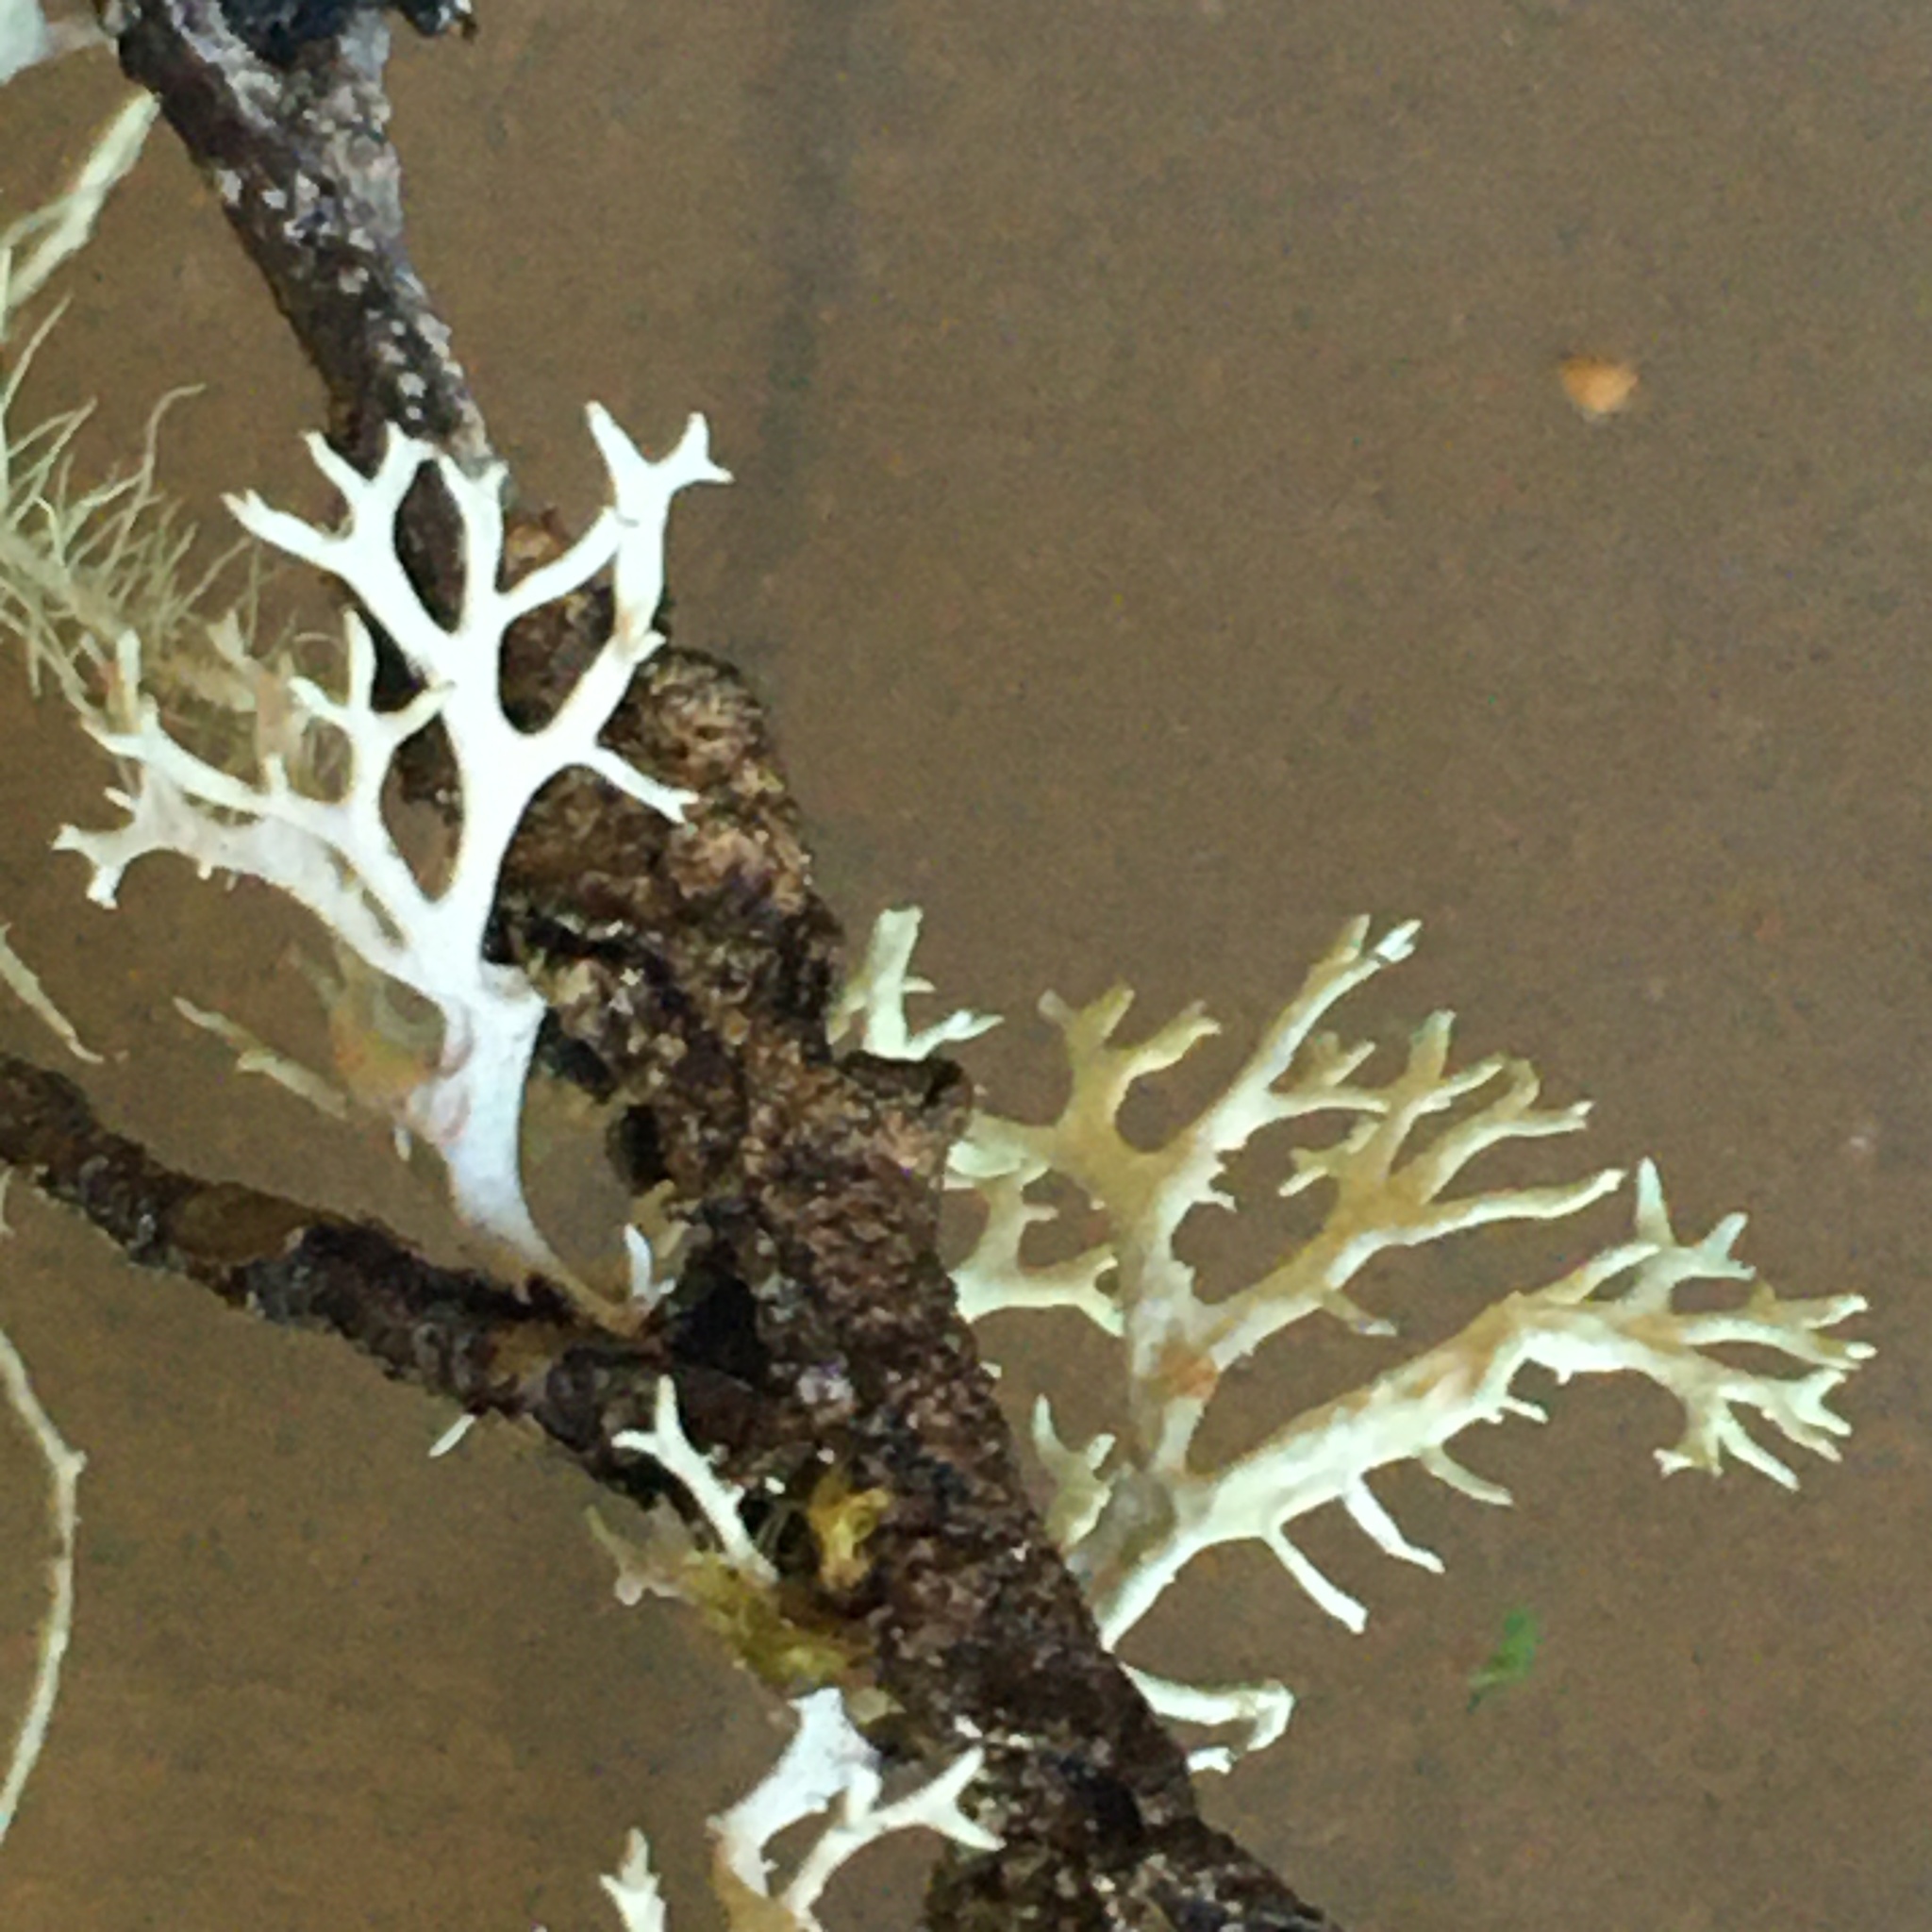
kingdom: Fungi
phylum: Ascomycota
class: Lecanoromycetes
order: Lecanorales
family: Parmeliaceae
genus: Evernia
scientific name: Evernia prunastri
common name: Oak moss
